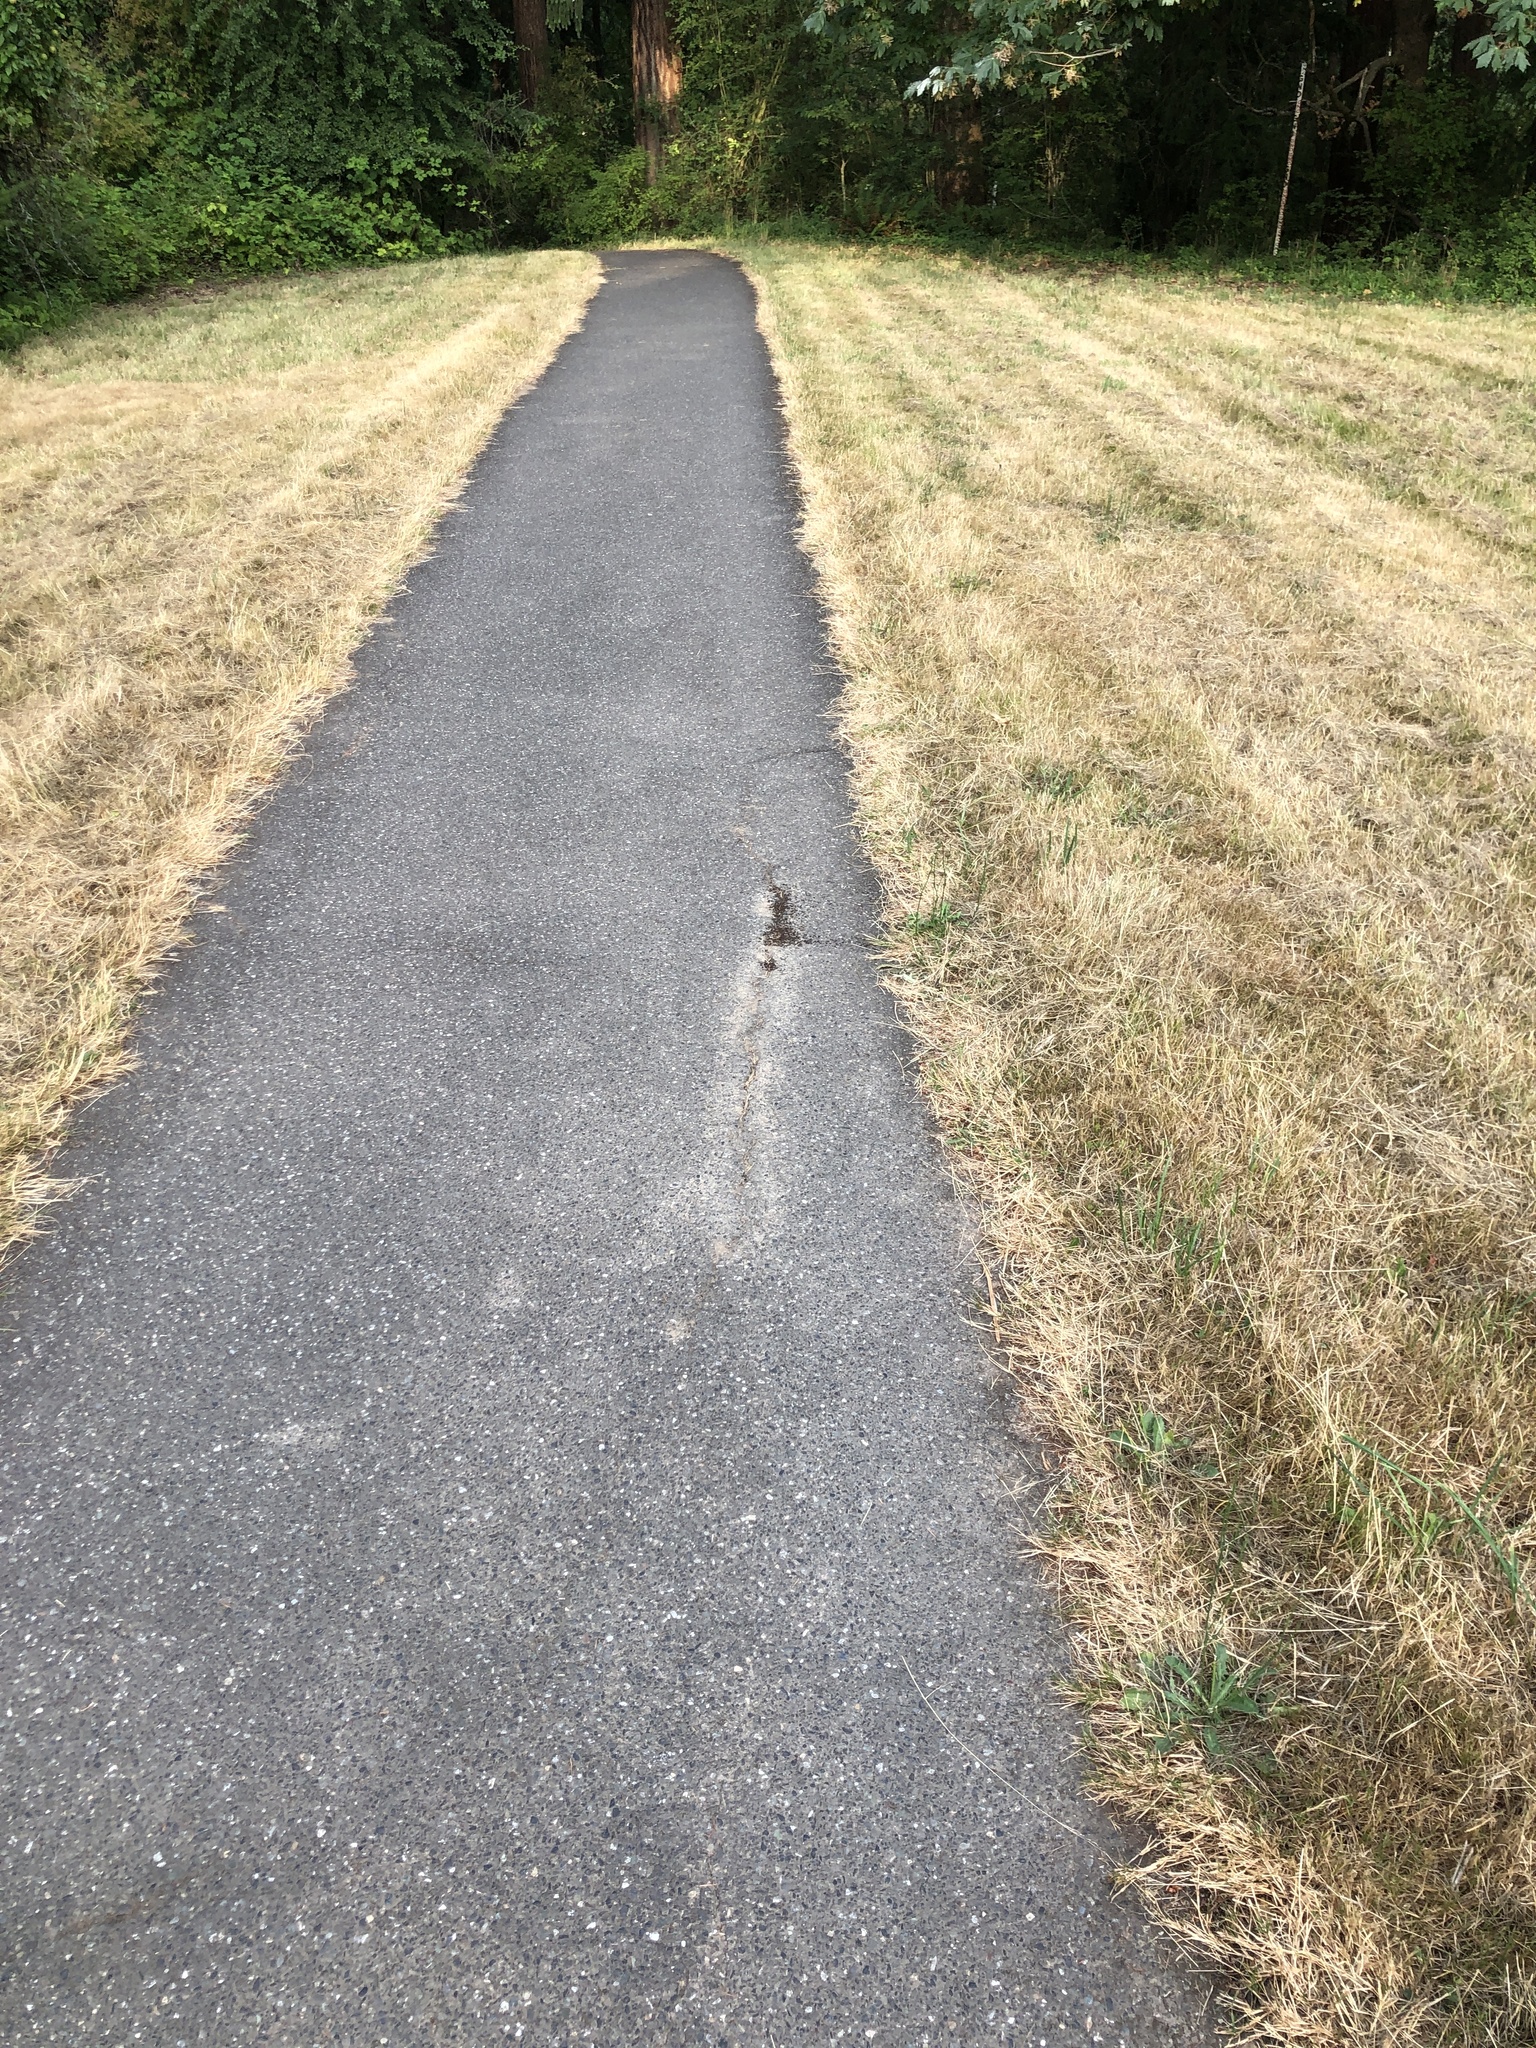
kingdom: Animalia
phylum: Arthropoda
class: Insecta
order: Hymenoptera
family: Formicidae
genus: Tetramorium
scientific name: Tetramorium immigrans
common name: Pavement ant
